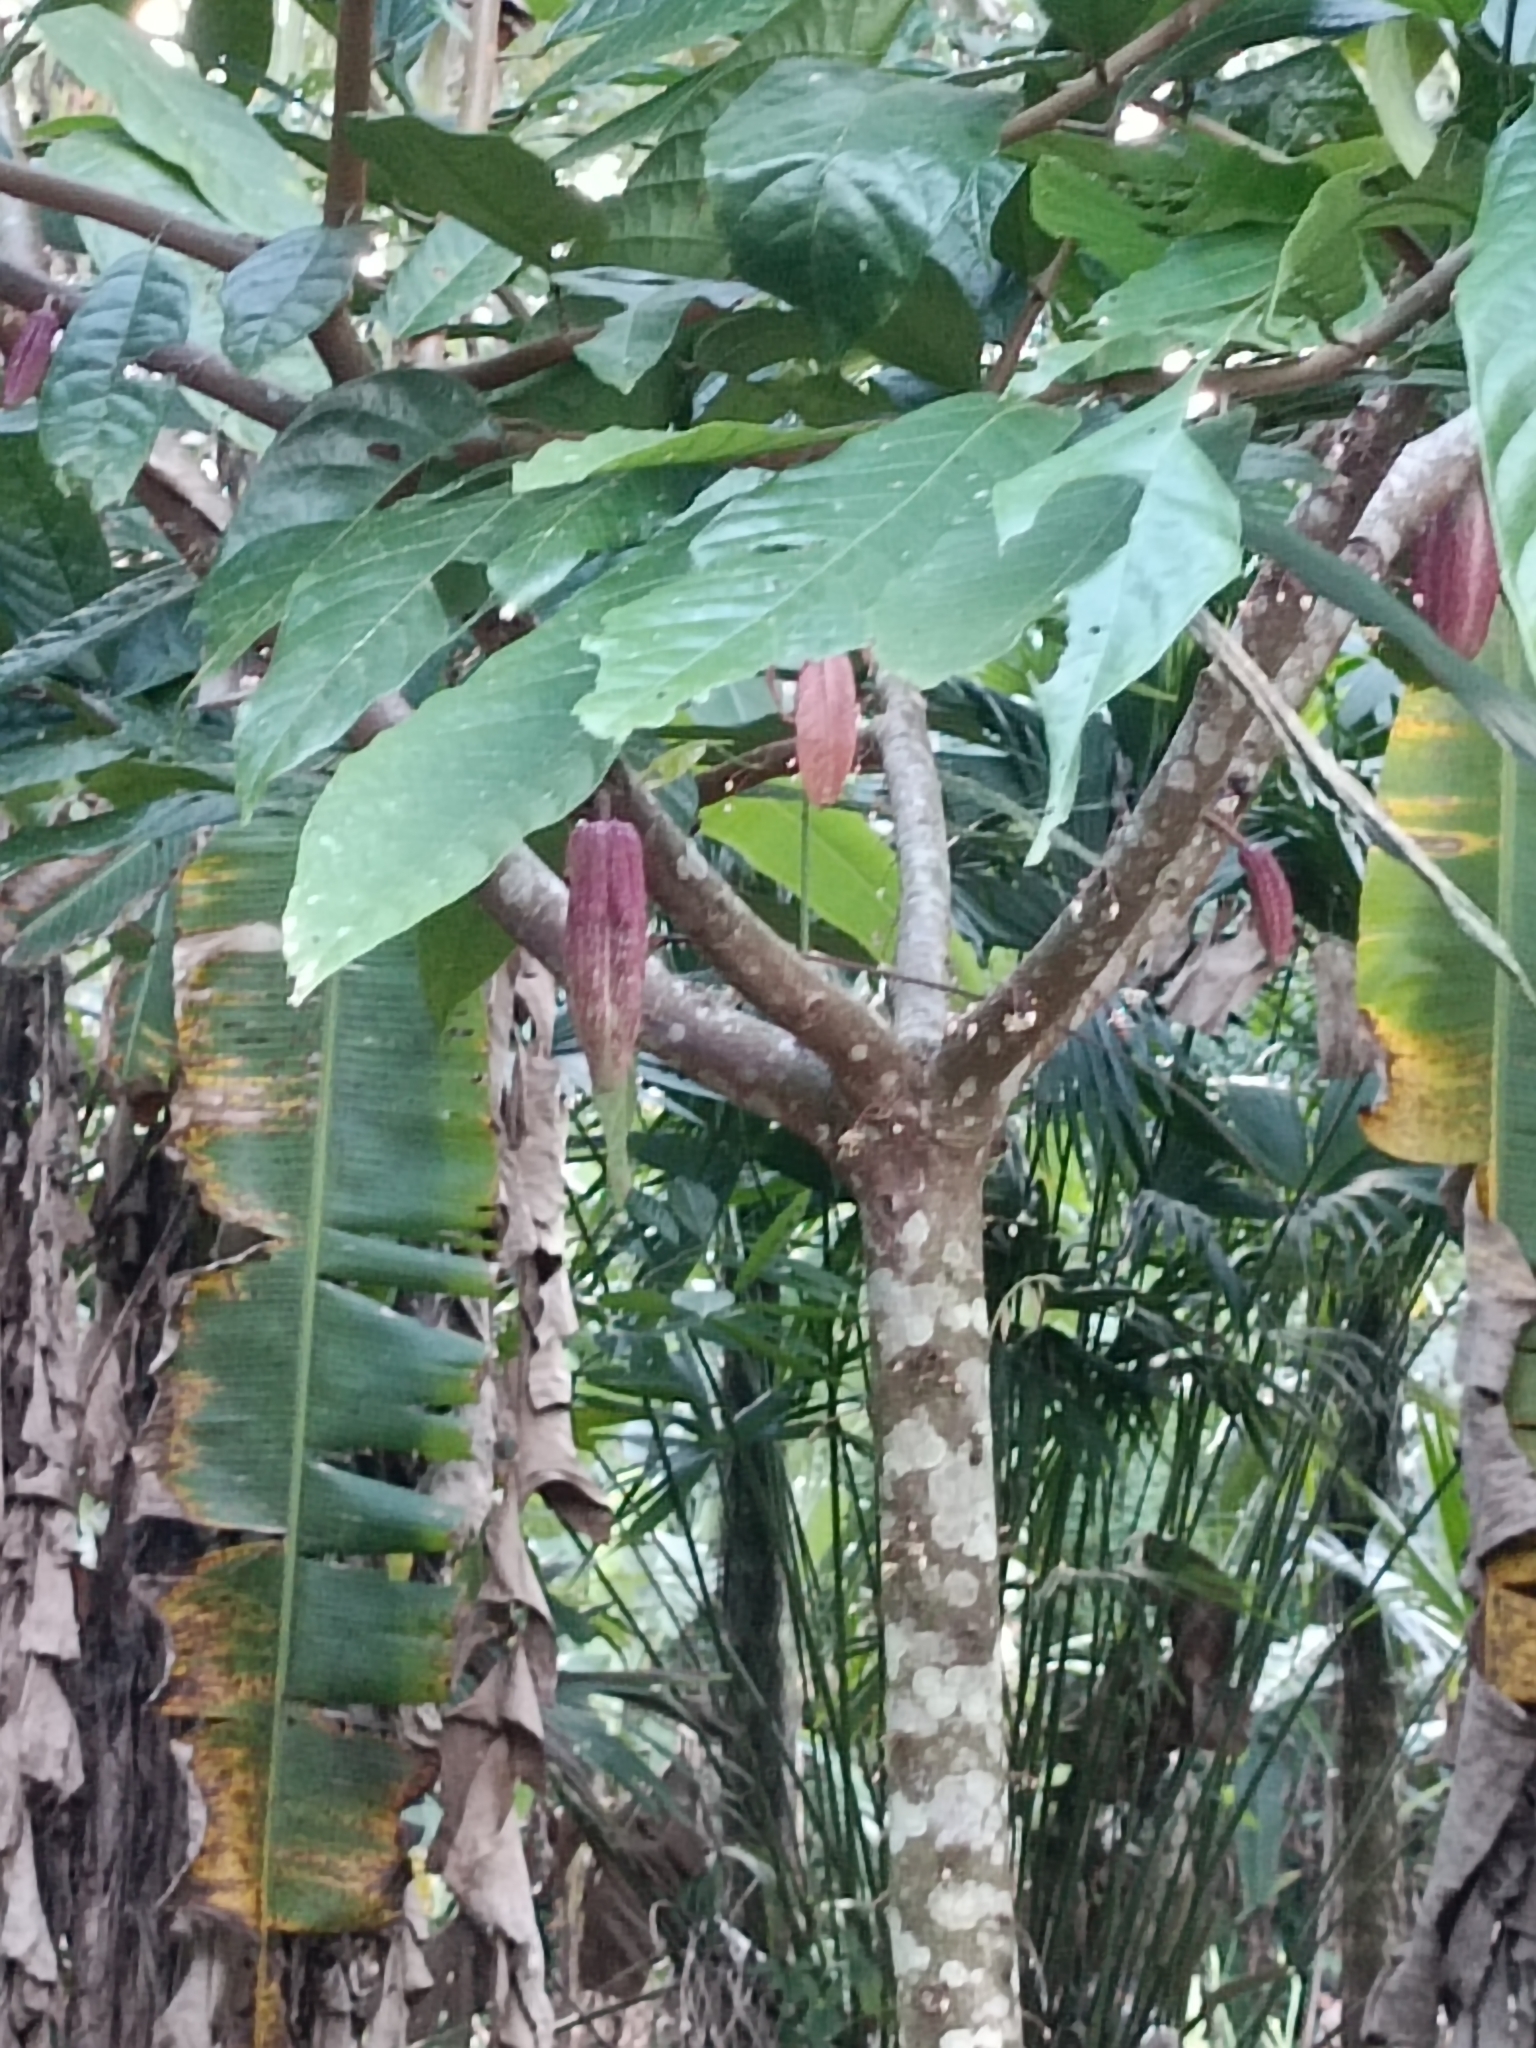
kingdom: Plantae
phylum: Tracheophyta
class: Magnoliopsida
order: Malvales
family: Malvaceae
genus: Theobroma
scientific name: Theobroma cacao
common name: Cocoa
